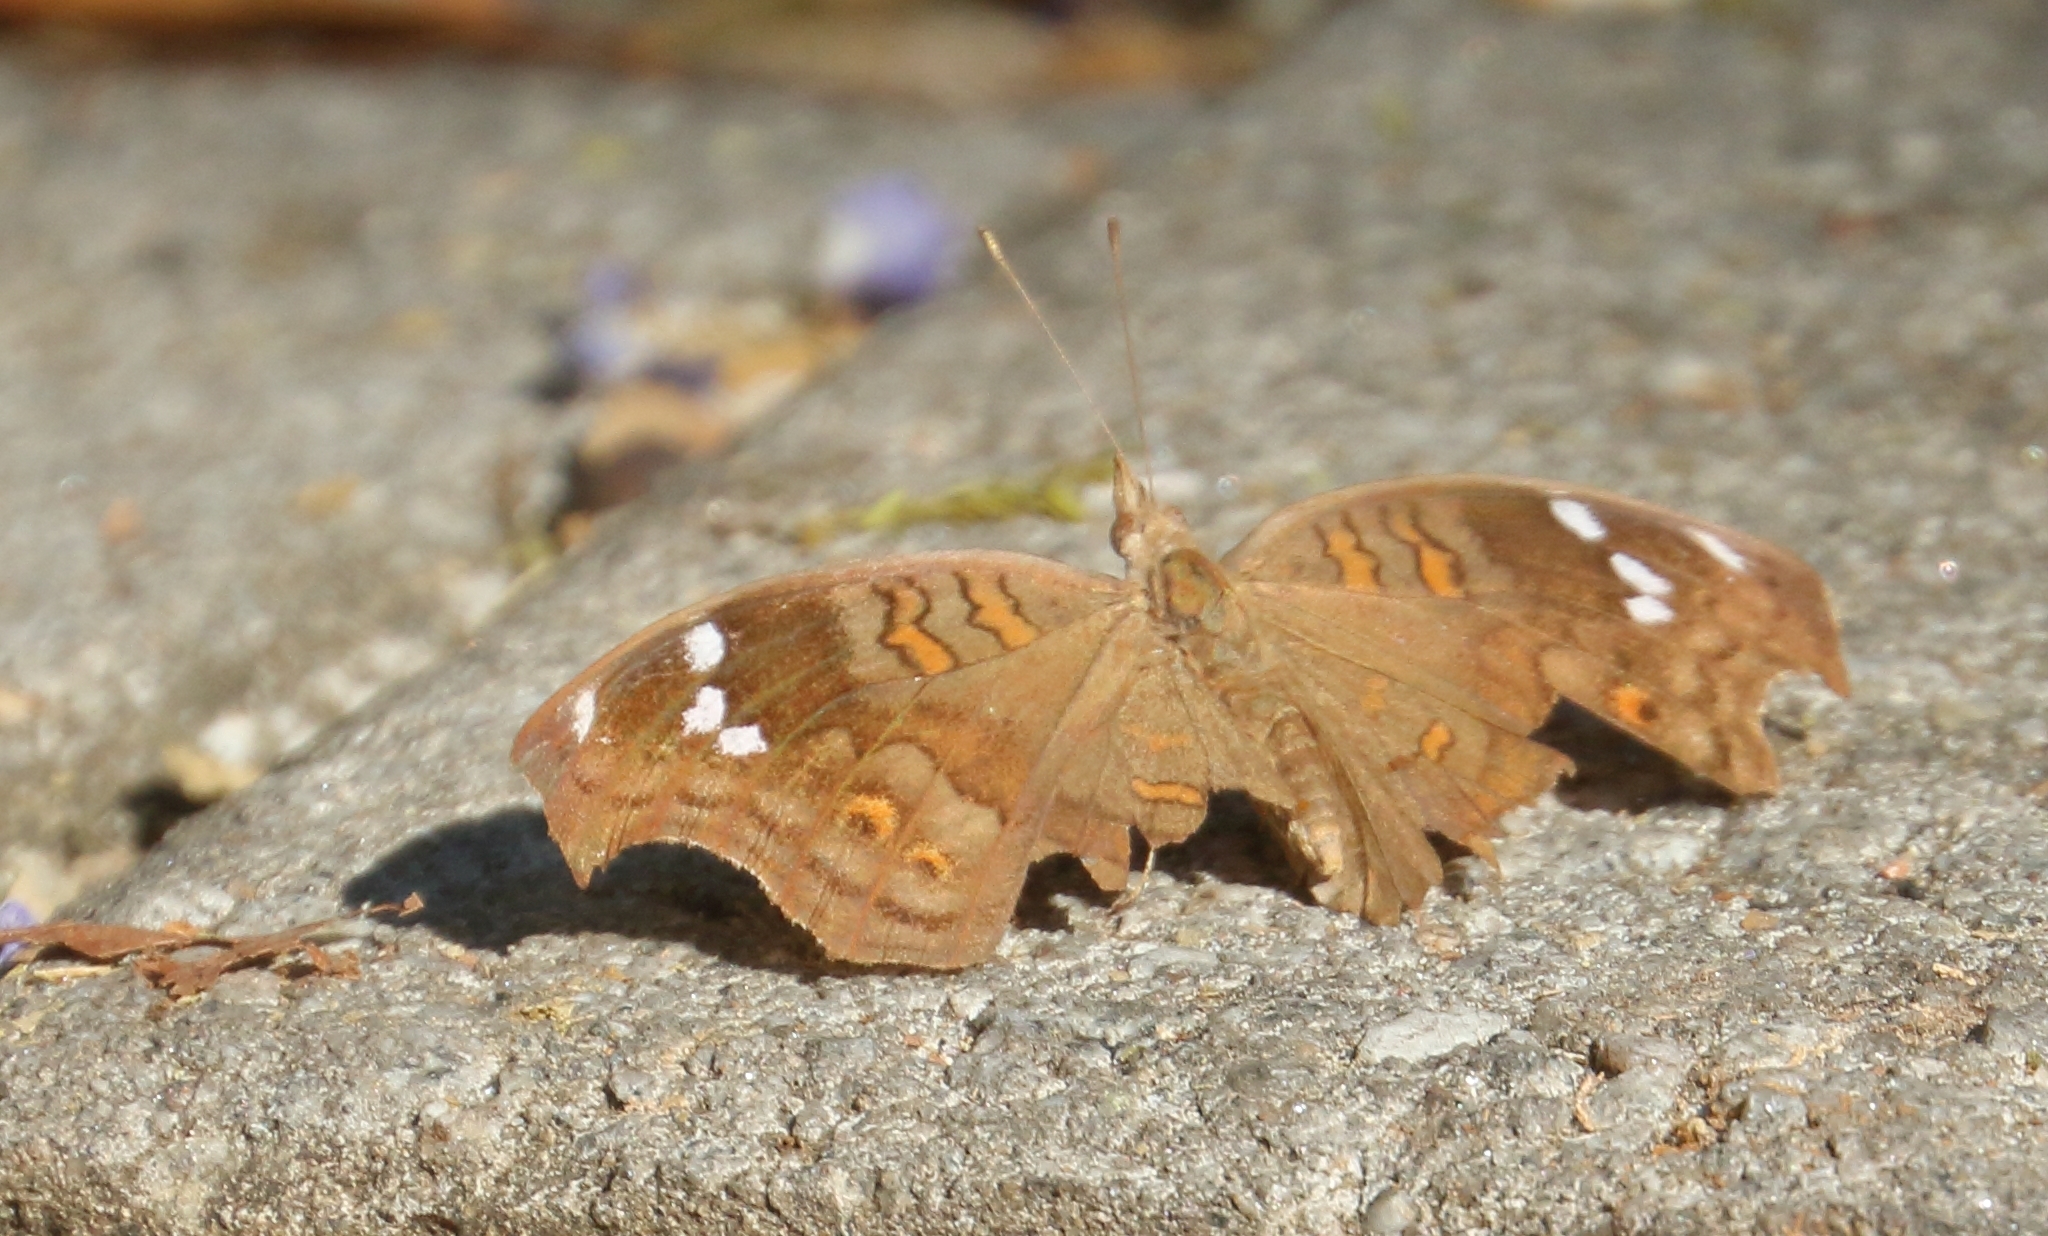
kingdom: Animalia
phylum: Arthropoda
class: Insecta
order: Lepidoptera
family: Nymphalidae
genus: Junonia
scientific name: Junonia natalica
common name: Brown pansy
